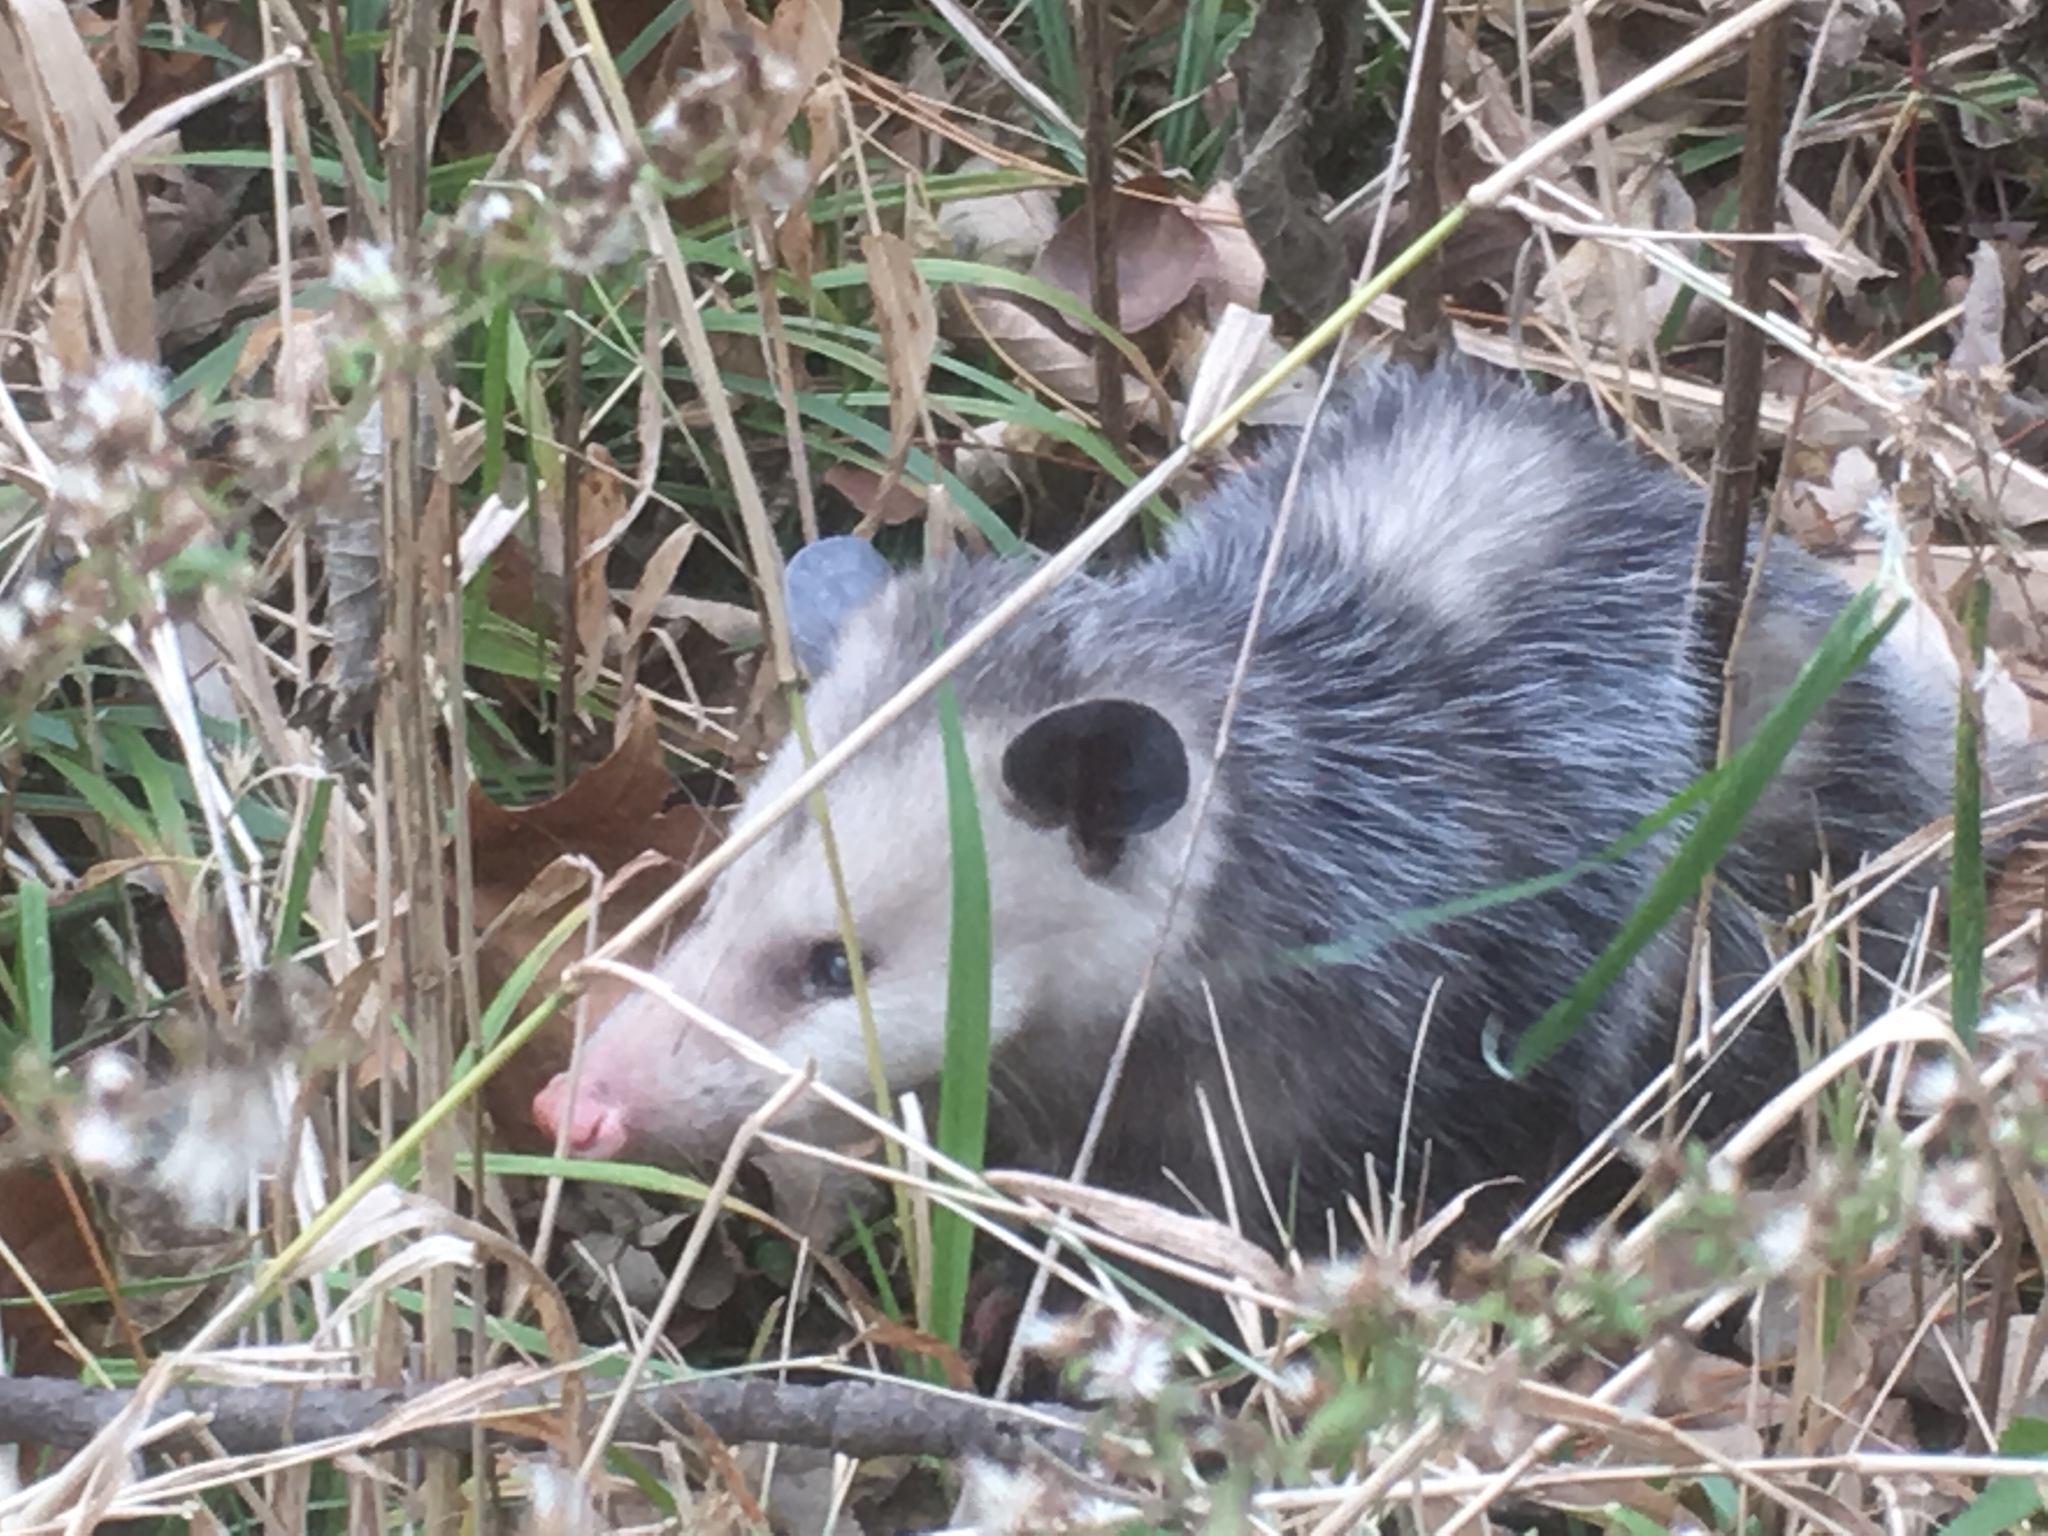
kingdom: Animalia
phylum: Chordata
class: Mammalia
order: Didelphimorphia
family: Didelphidae
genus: Didelphis
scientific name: Didelphis virginiana
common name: Virginia opossum
